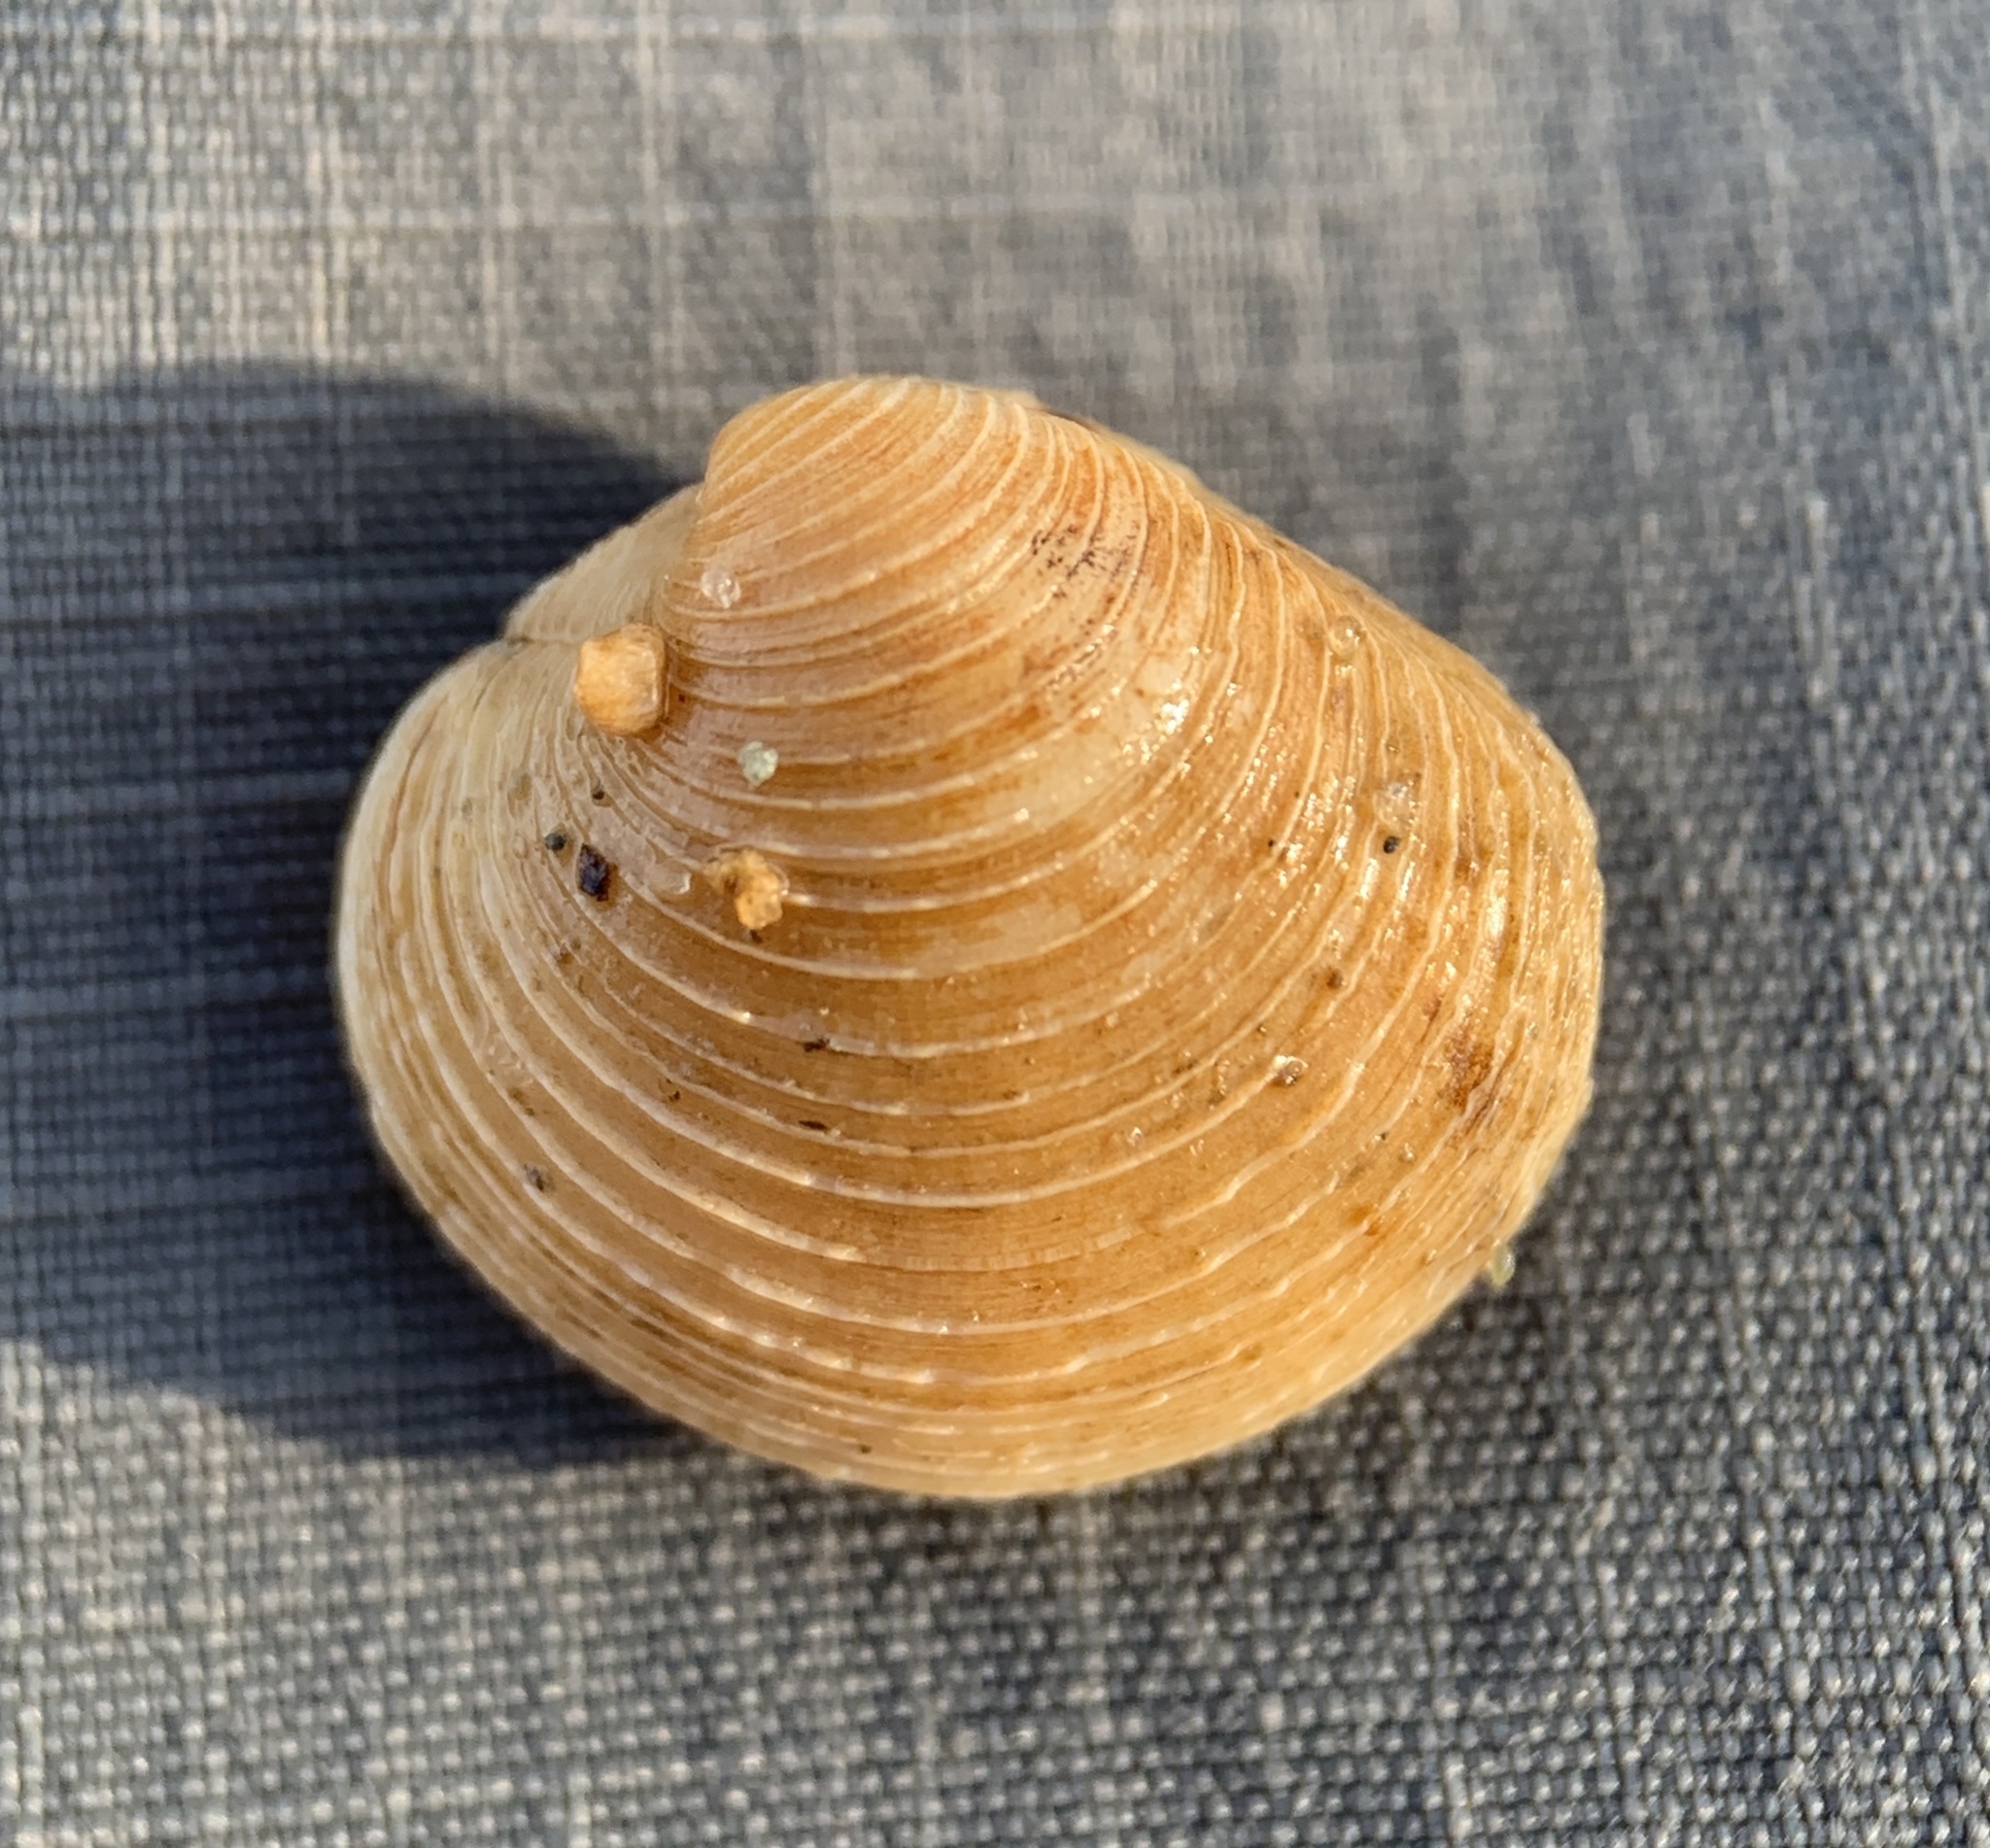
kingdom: Animalia
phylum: Mollusca
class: Bivalvia
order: Venerida
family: Veneridae
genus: Mercenaria
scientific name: Mercenaria mercenaria
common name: American hard-shelled clam
